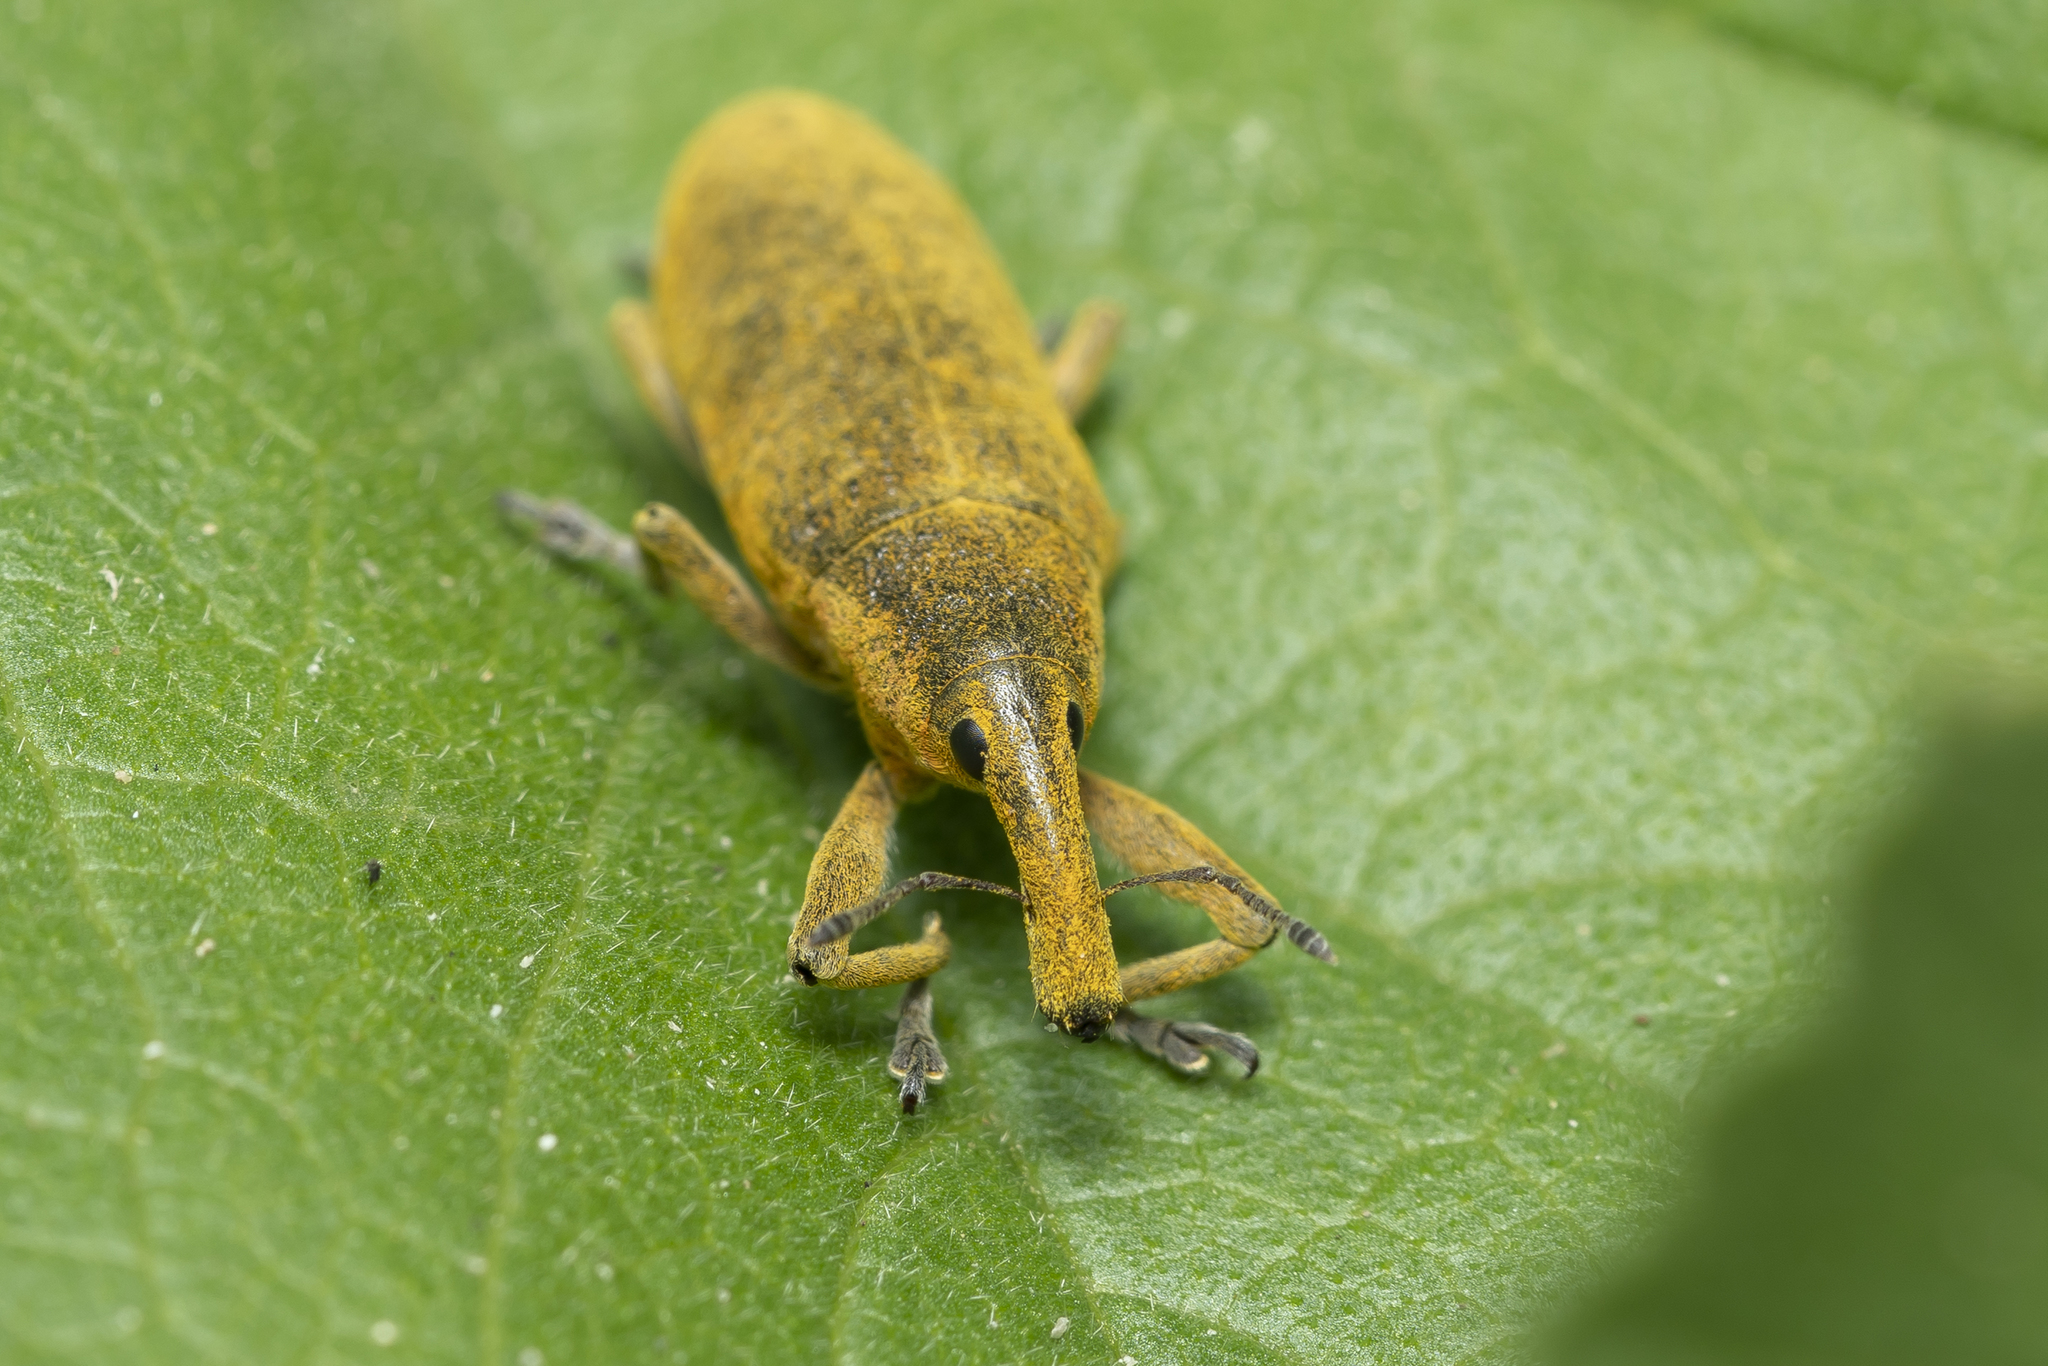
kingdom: Animalia
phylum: Arthropoda
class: Insecta
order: Coleoptera
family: Curculionidae
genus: Lixus
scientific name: Lixus pulverulentus
